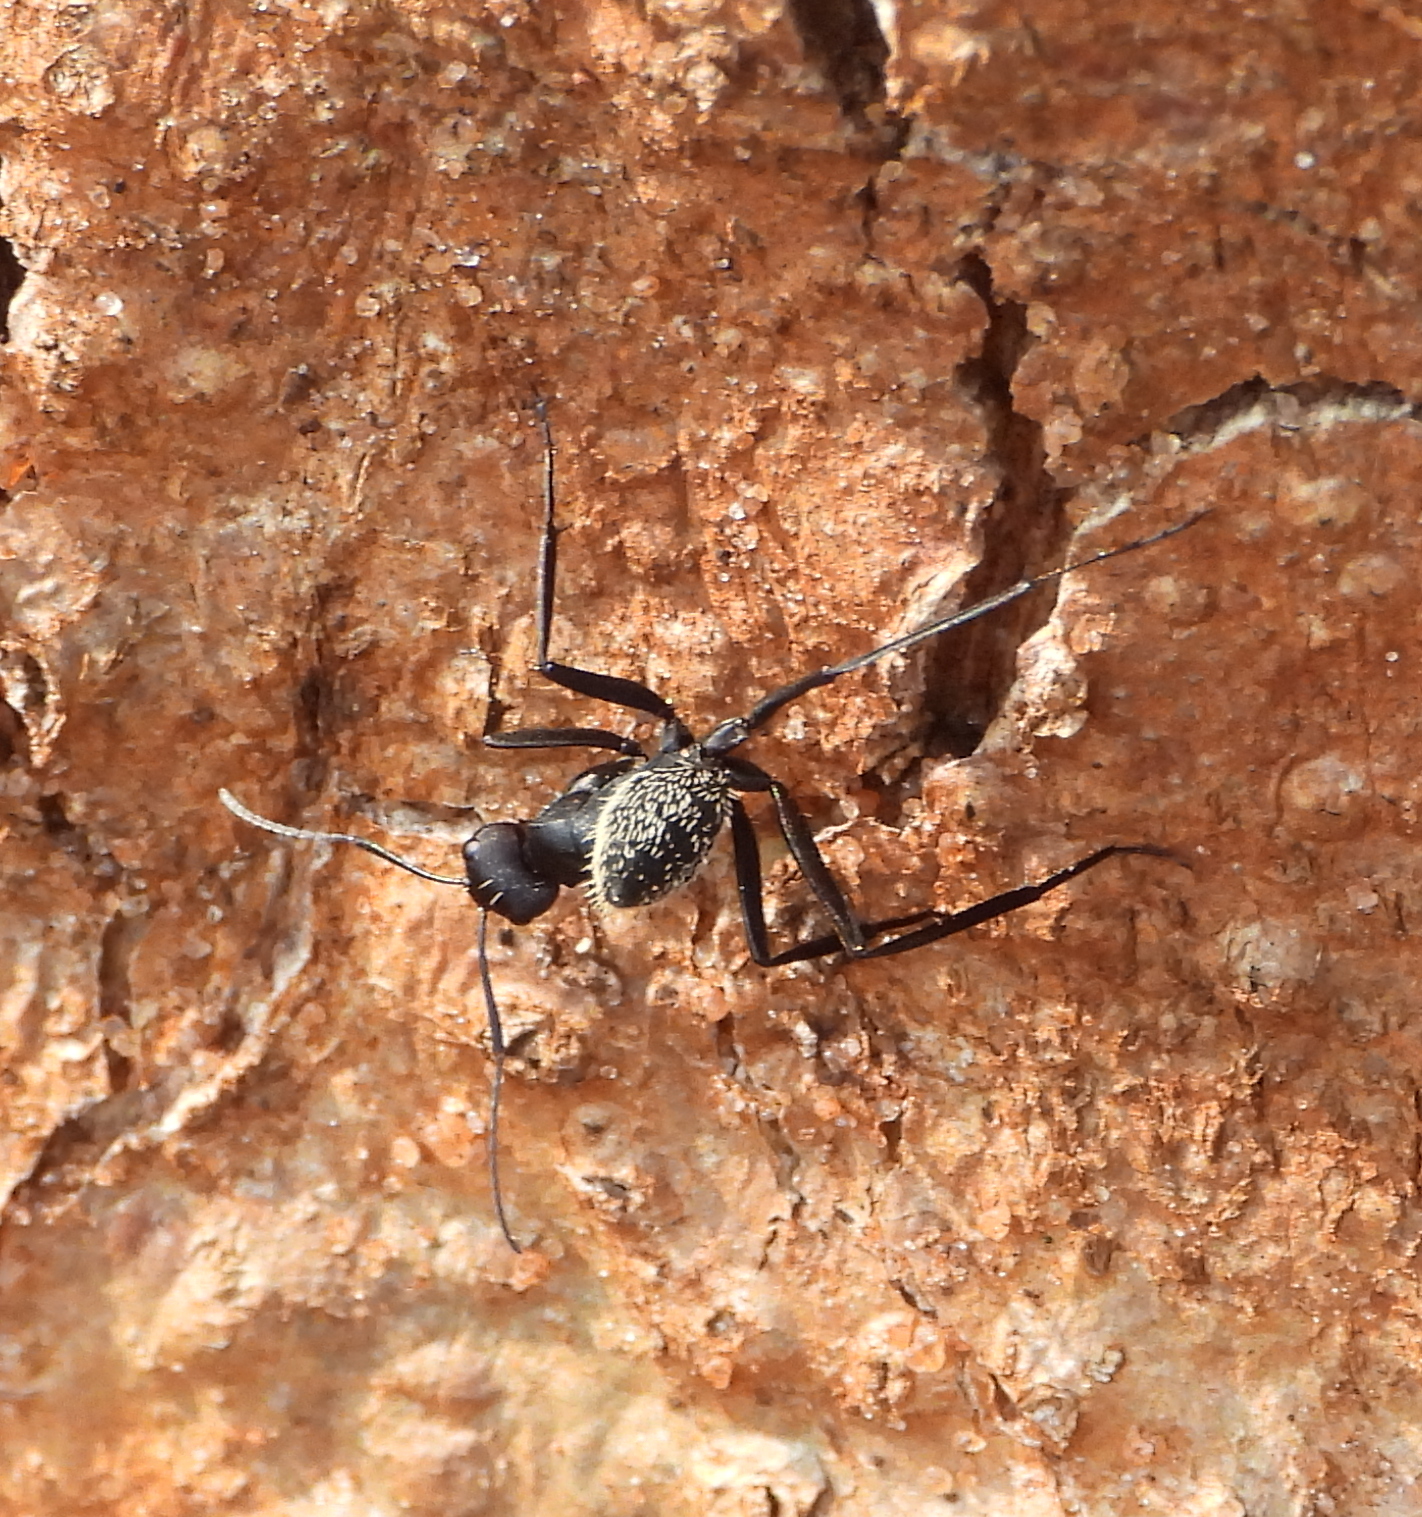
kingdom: Animalia
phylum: Arthropoda
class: Insecta
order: Hymenoptera
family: Formicidae
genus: Camponotus
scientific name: Camponotus fulvopilosus
